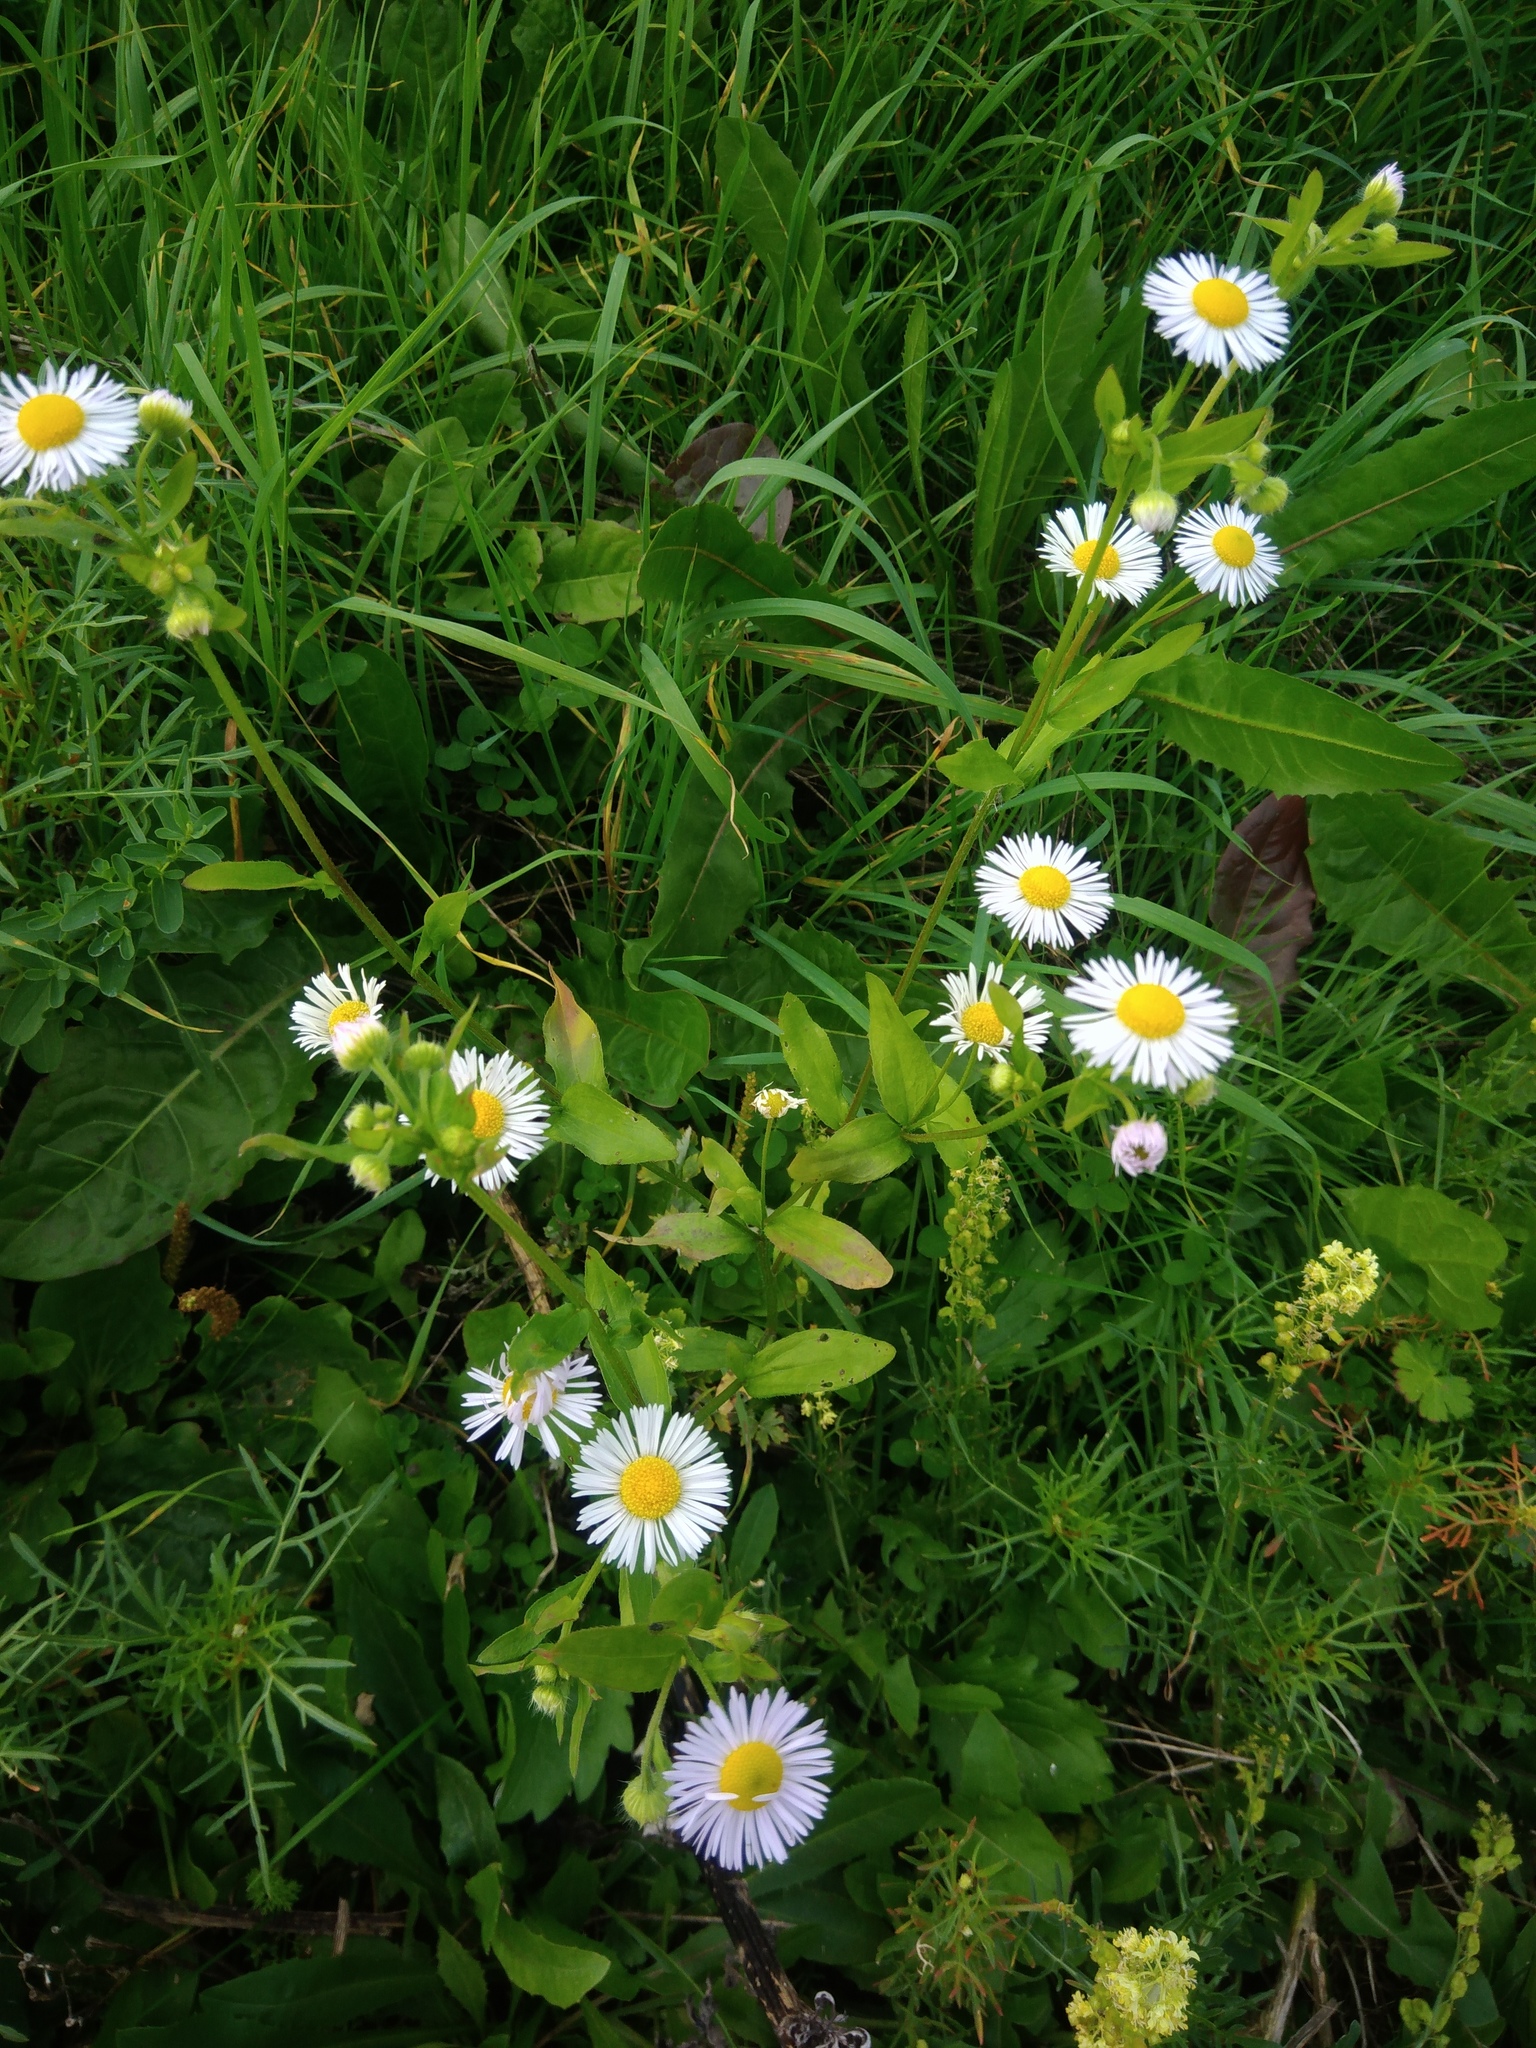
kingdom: Plantae
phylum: Tracheophyta
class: Magnoliopsida
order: Asterales
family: Asteraceae
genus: Erigeron
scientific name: Erigeron annuus
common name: Tall fleabane
